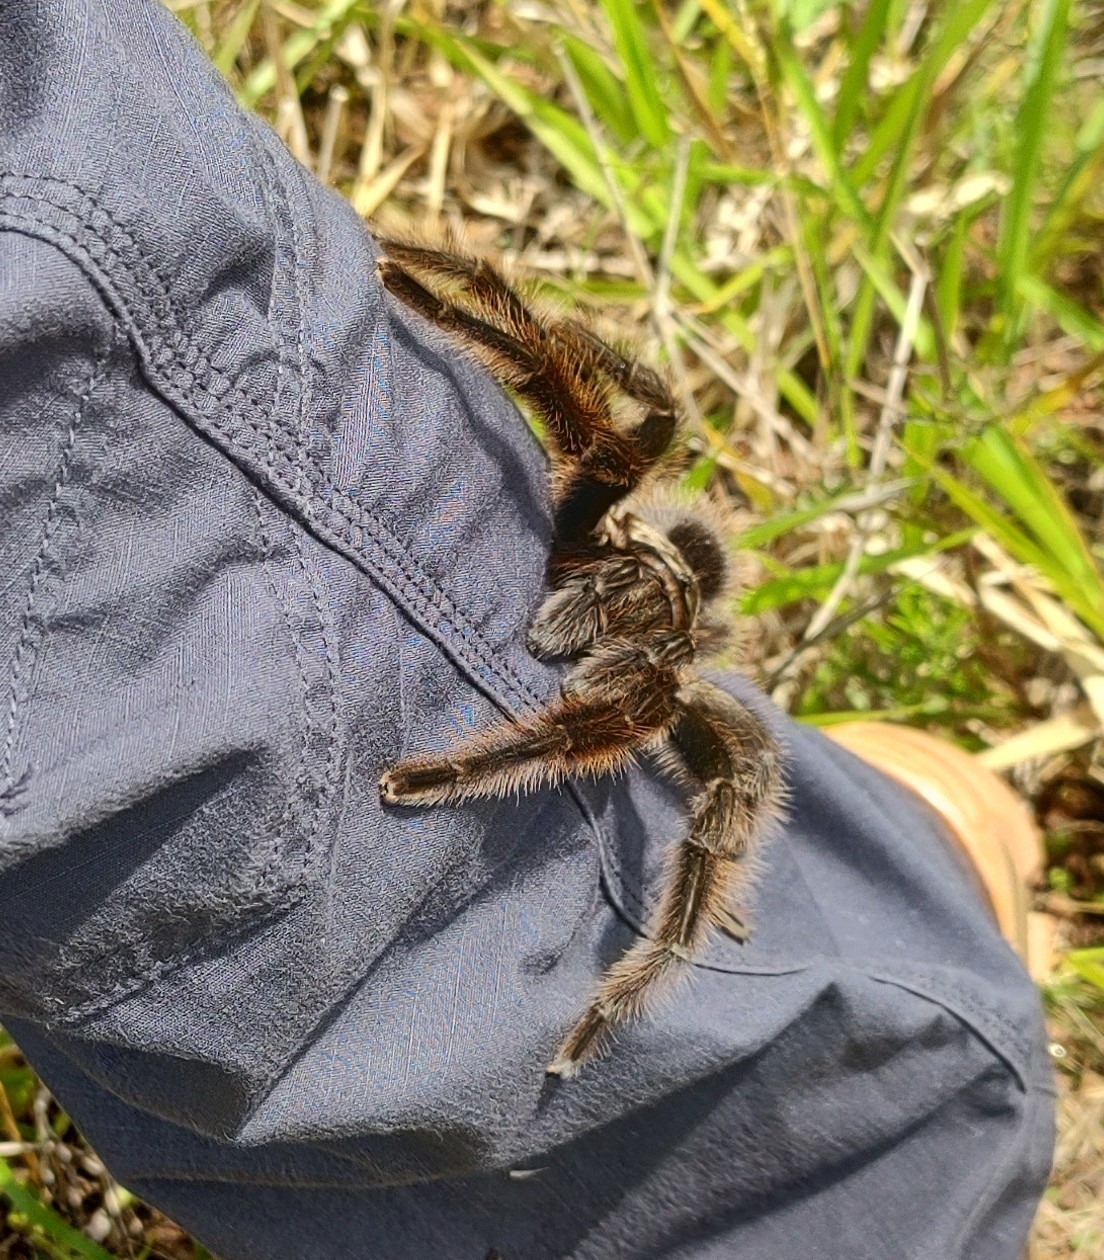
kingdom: Animalia
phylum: Arthropoda
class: Arachnida
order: Araneae
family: Theraphosidae
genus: Grammostola
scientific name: Grammostola iheringi
